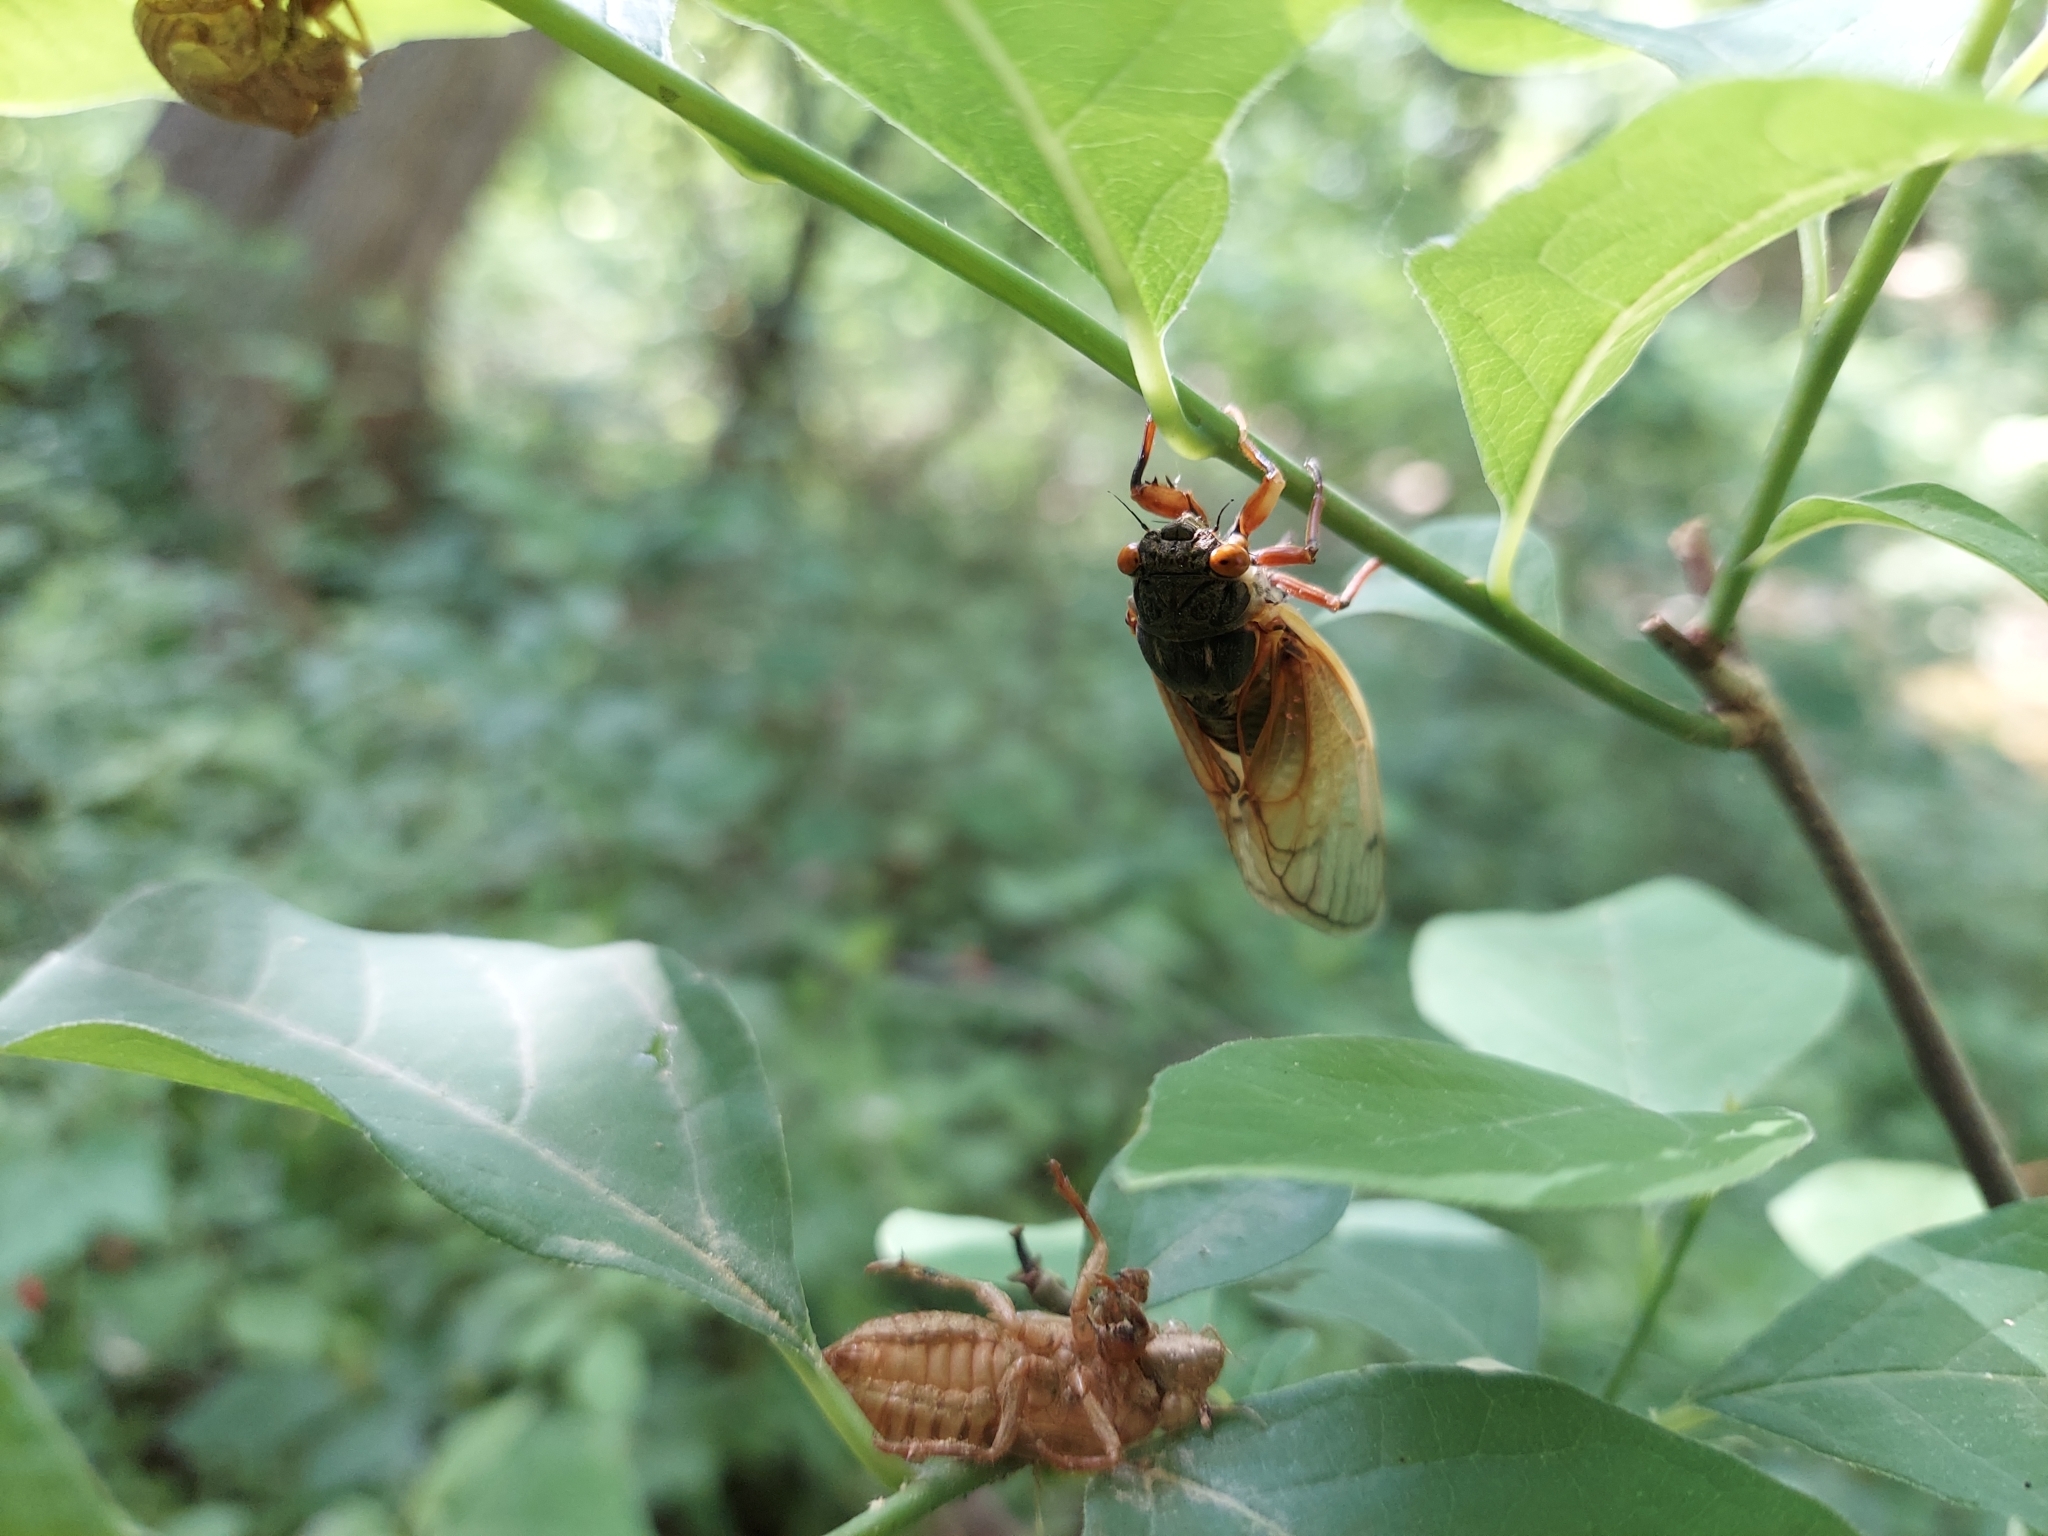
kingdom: Animalia
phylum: Arthropoda
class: Insecta
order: Hemiptera
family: Cicadidae
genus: Magicicada
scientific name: Magicicada cassini
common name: Cassin's 17-year cicada
